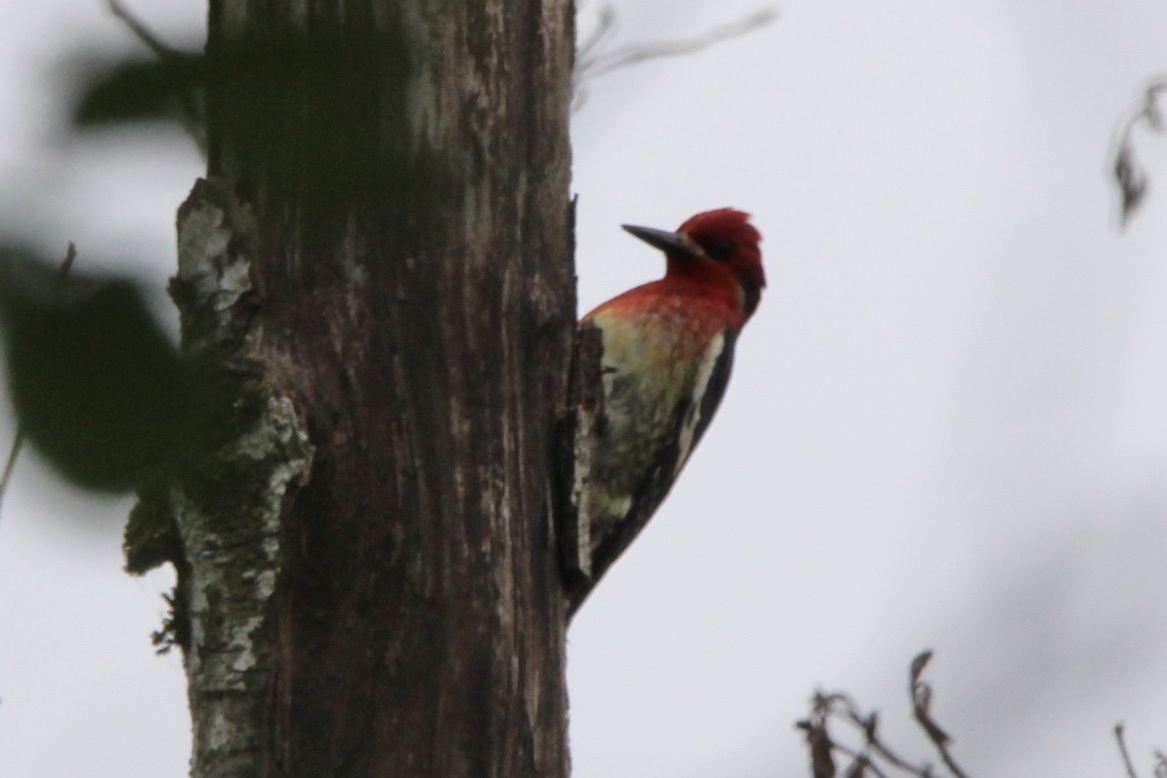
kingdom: Animalia
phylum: Chordata
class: Aves
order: Piciformes
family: Picidae
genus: Sphyrapicus
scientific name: Sphyrapicus ruber
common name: Red-breasted sapsucker
